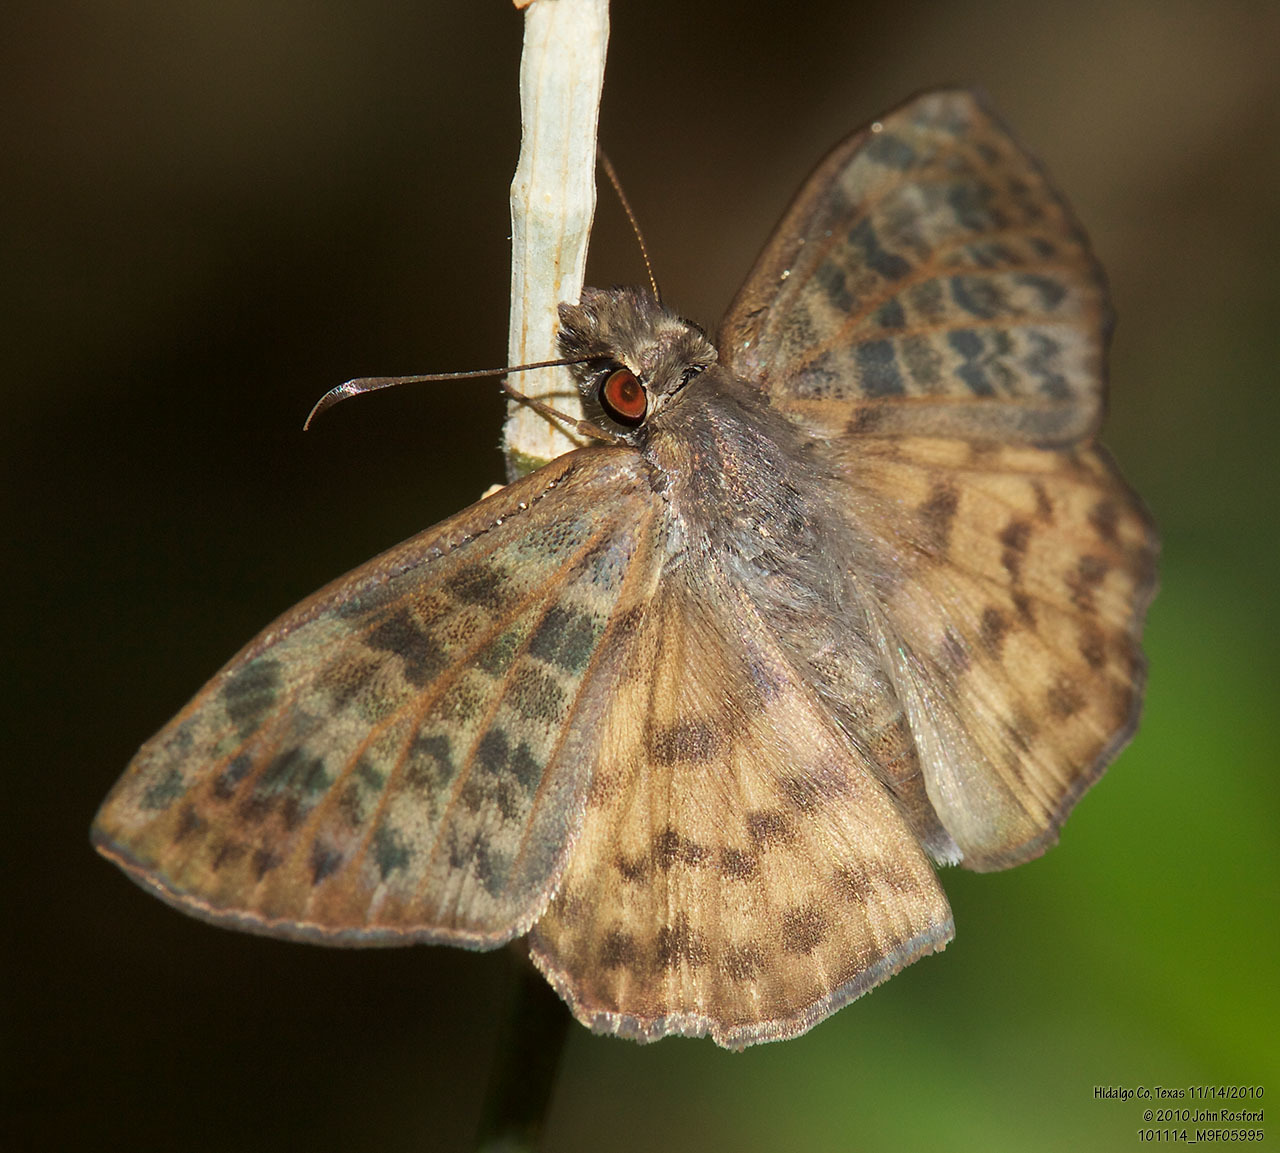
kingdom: Animalia
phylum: Arthropoda
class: Insecta
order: Lepidoptera
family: Hesperiidae
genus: Timochares
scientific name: Timochares ruptifasciata
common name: Brown-banded skipper
